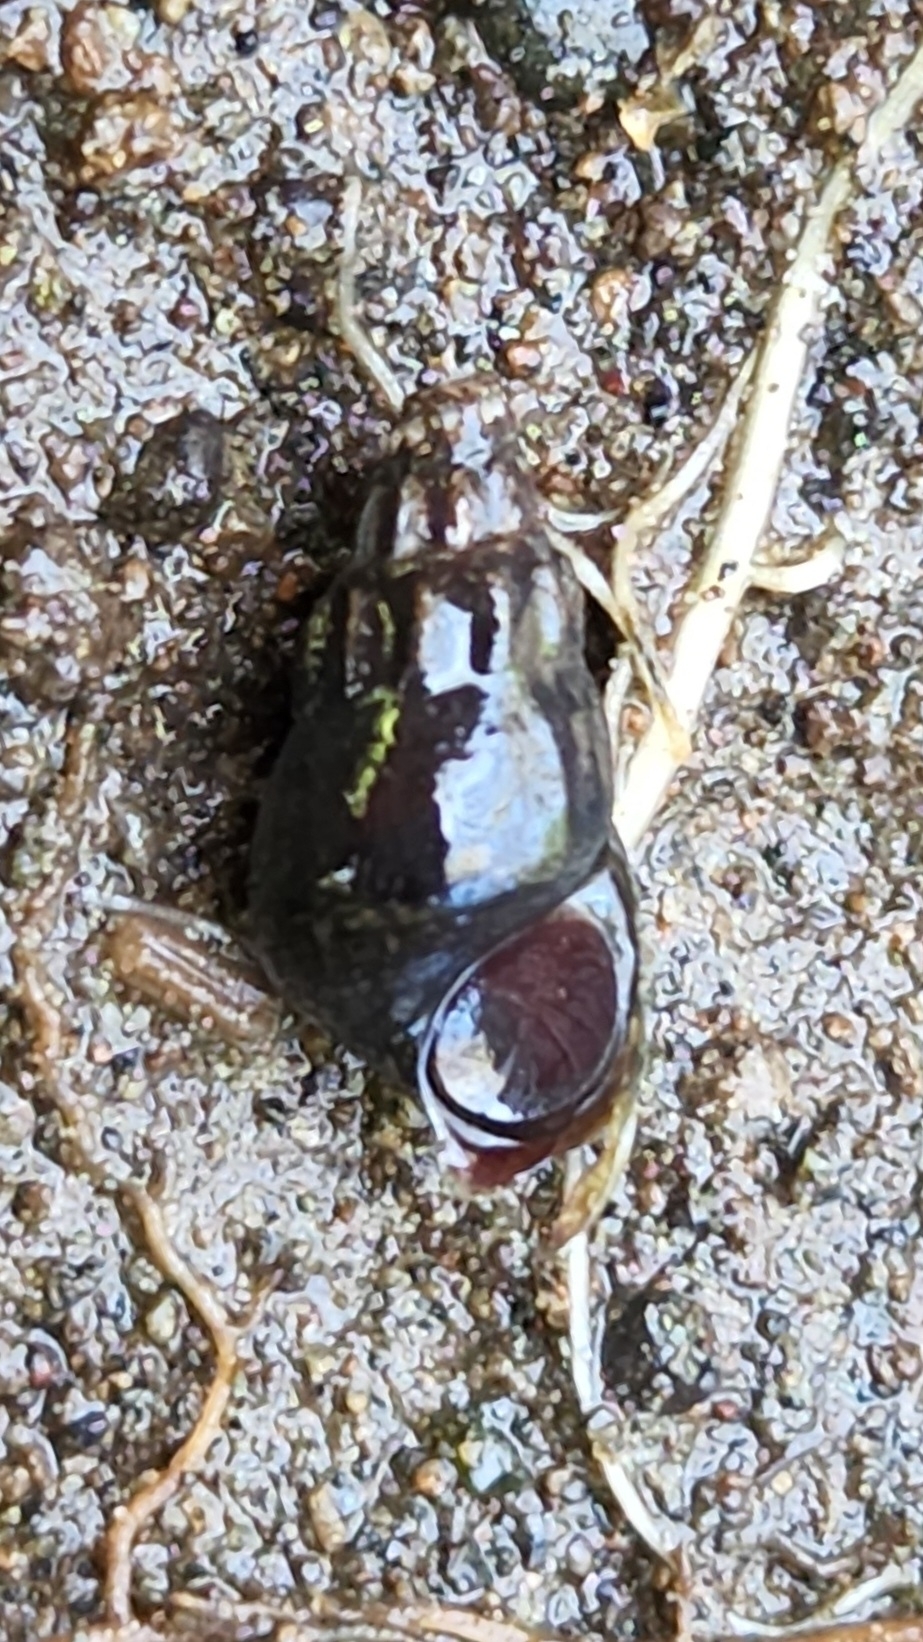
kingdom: Animalia
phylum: Mollusca
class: Gastropoda
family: Semisulcospiridae
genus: Juga
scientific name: Juga plicifera
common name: Pleated juga
